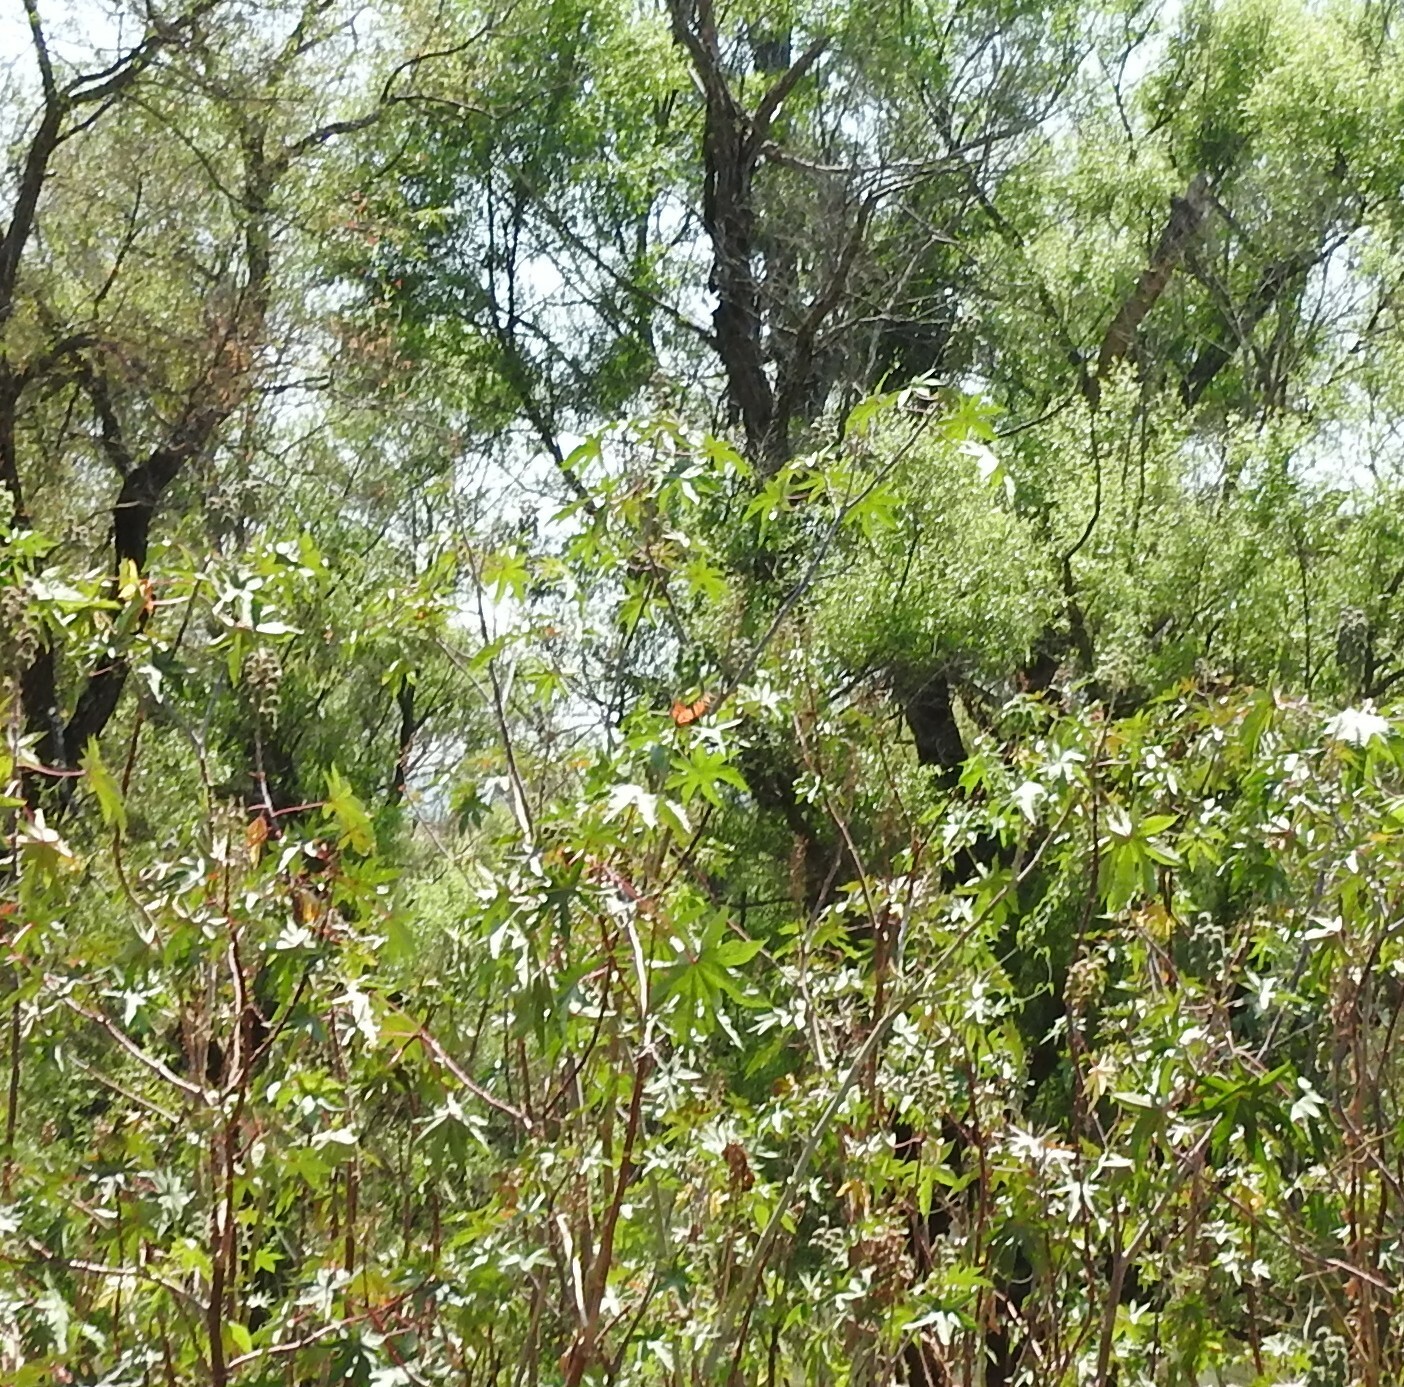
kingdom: Animalia
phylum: Arthropoda
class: Insecta
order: Lepidoptera
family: Nymphalidae
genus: Danaus
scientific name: Danaus plexippus
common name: Monarch
